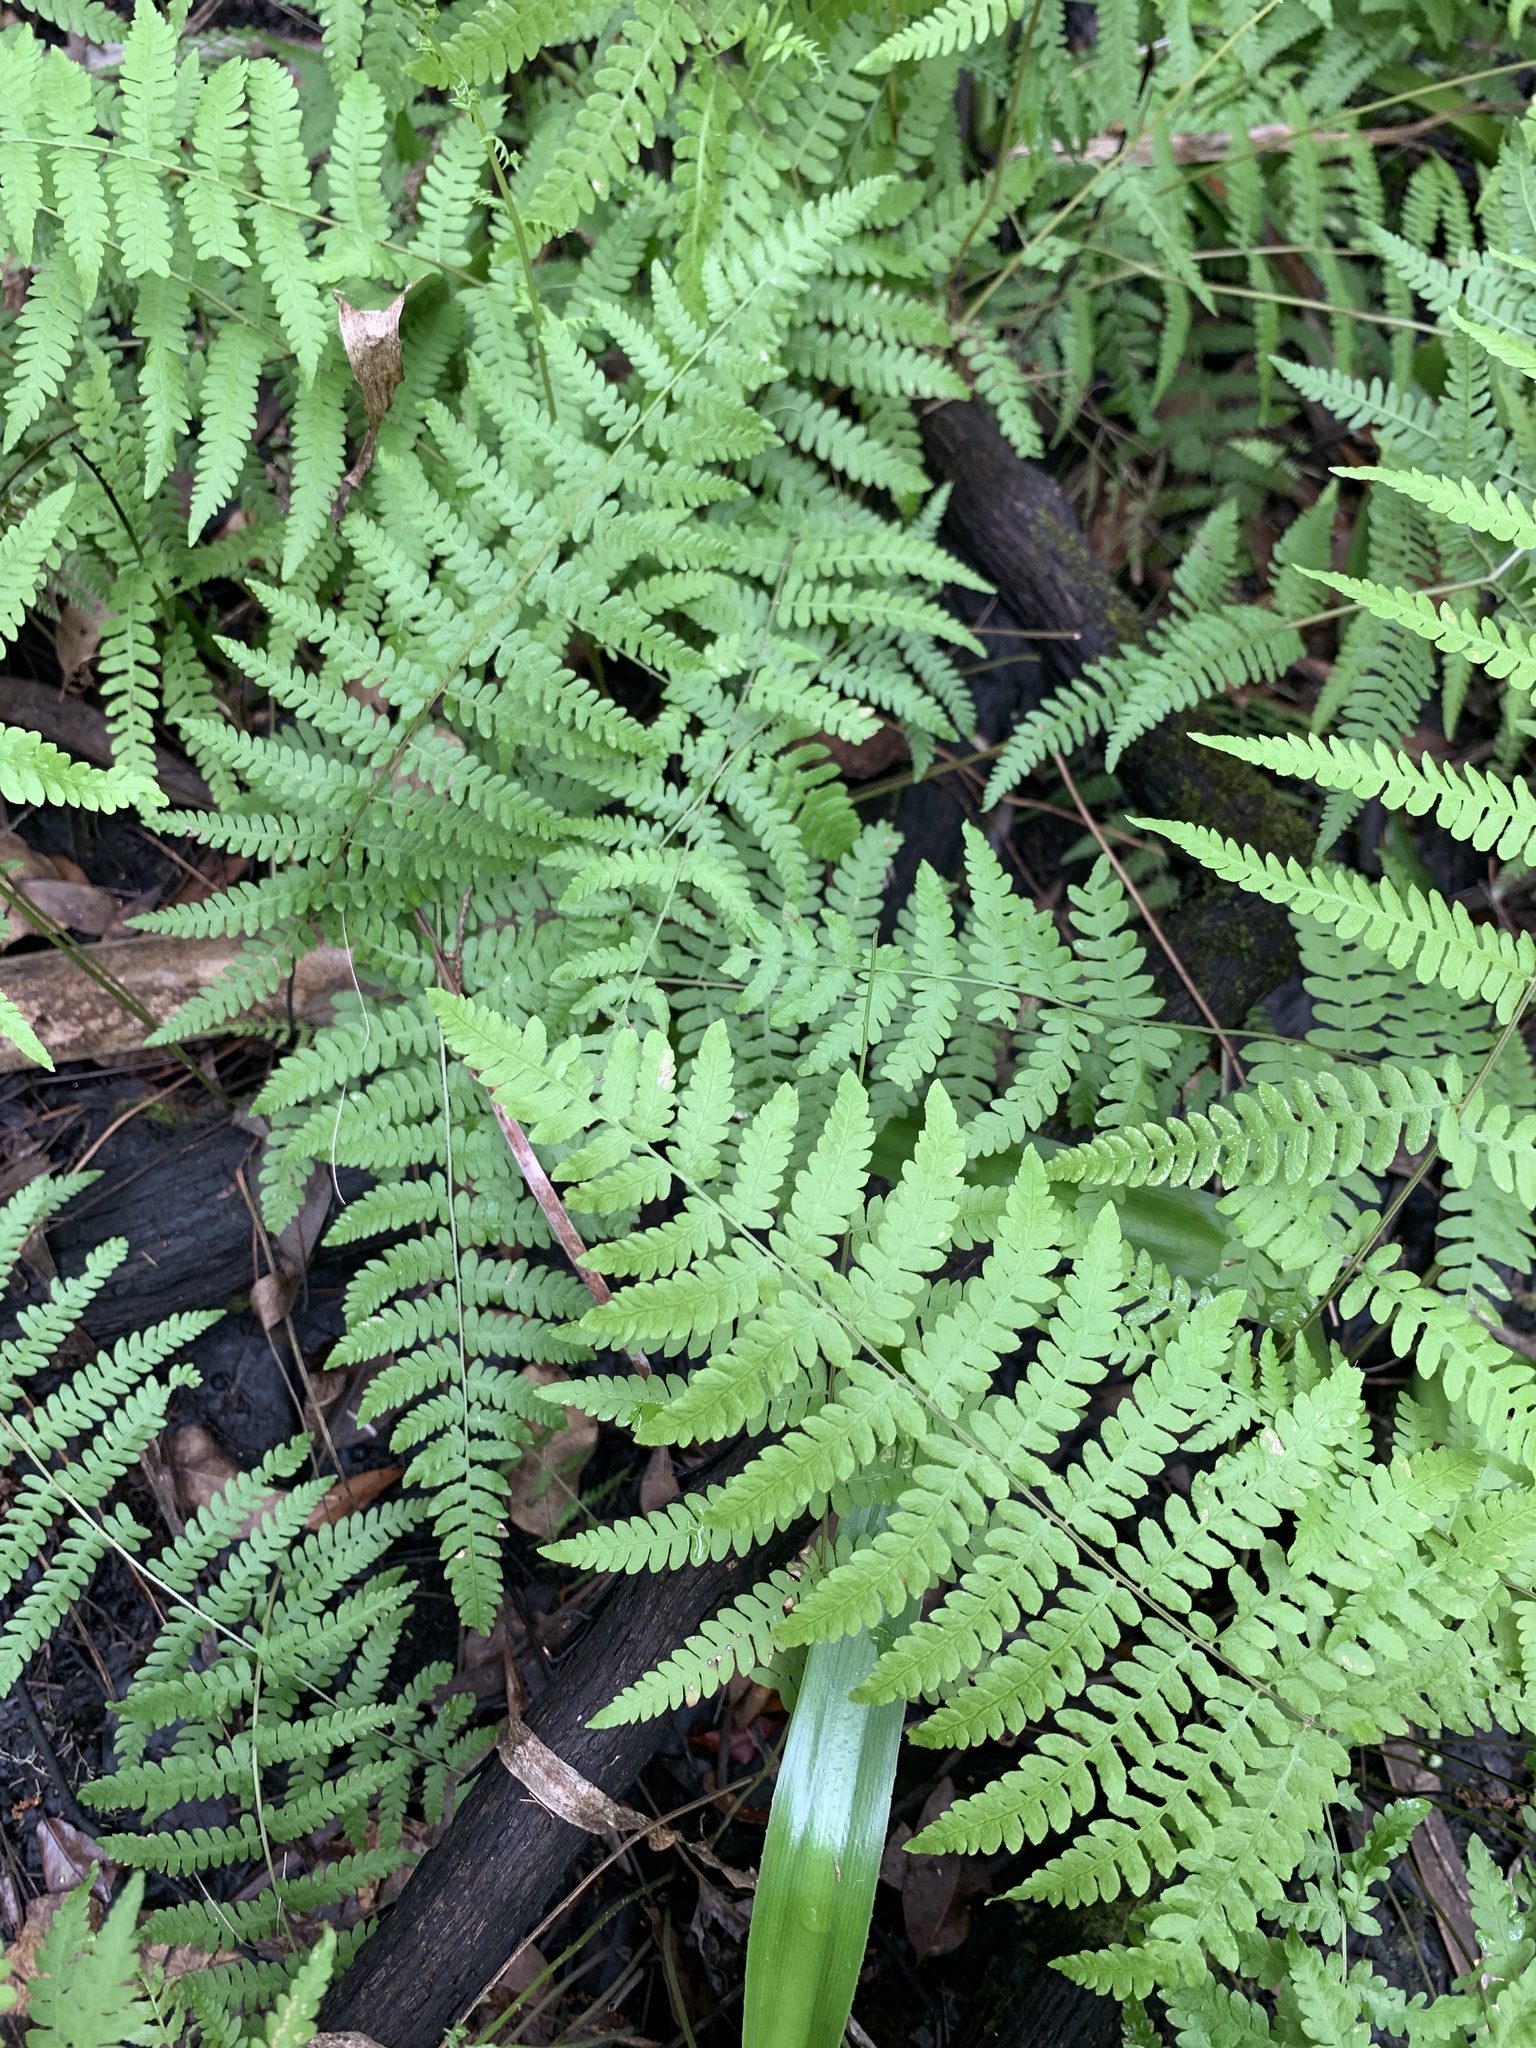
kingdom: Plantae
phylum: Tracheophyta
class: Polypodiopsida
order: Polypodiales
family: Thelypteridaceae
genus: Thelypteris
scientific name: Thelypteris palustris
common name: Marsh fern
